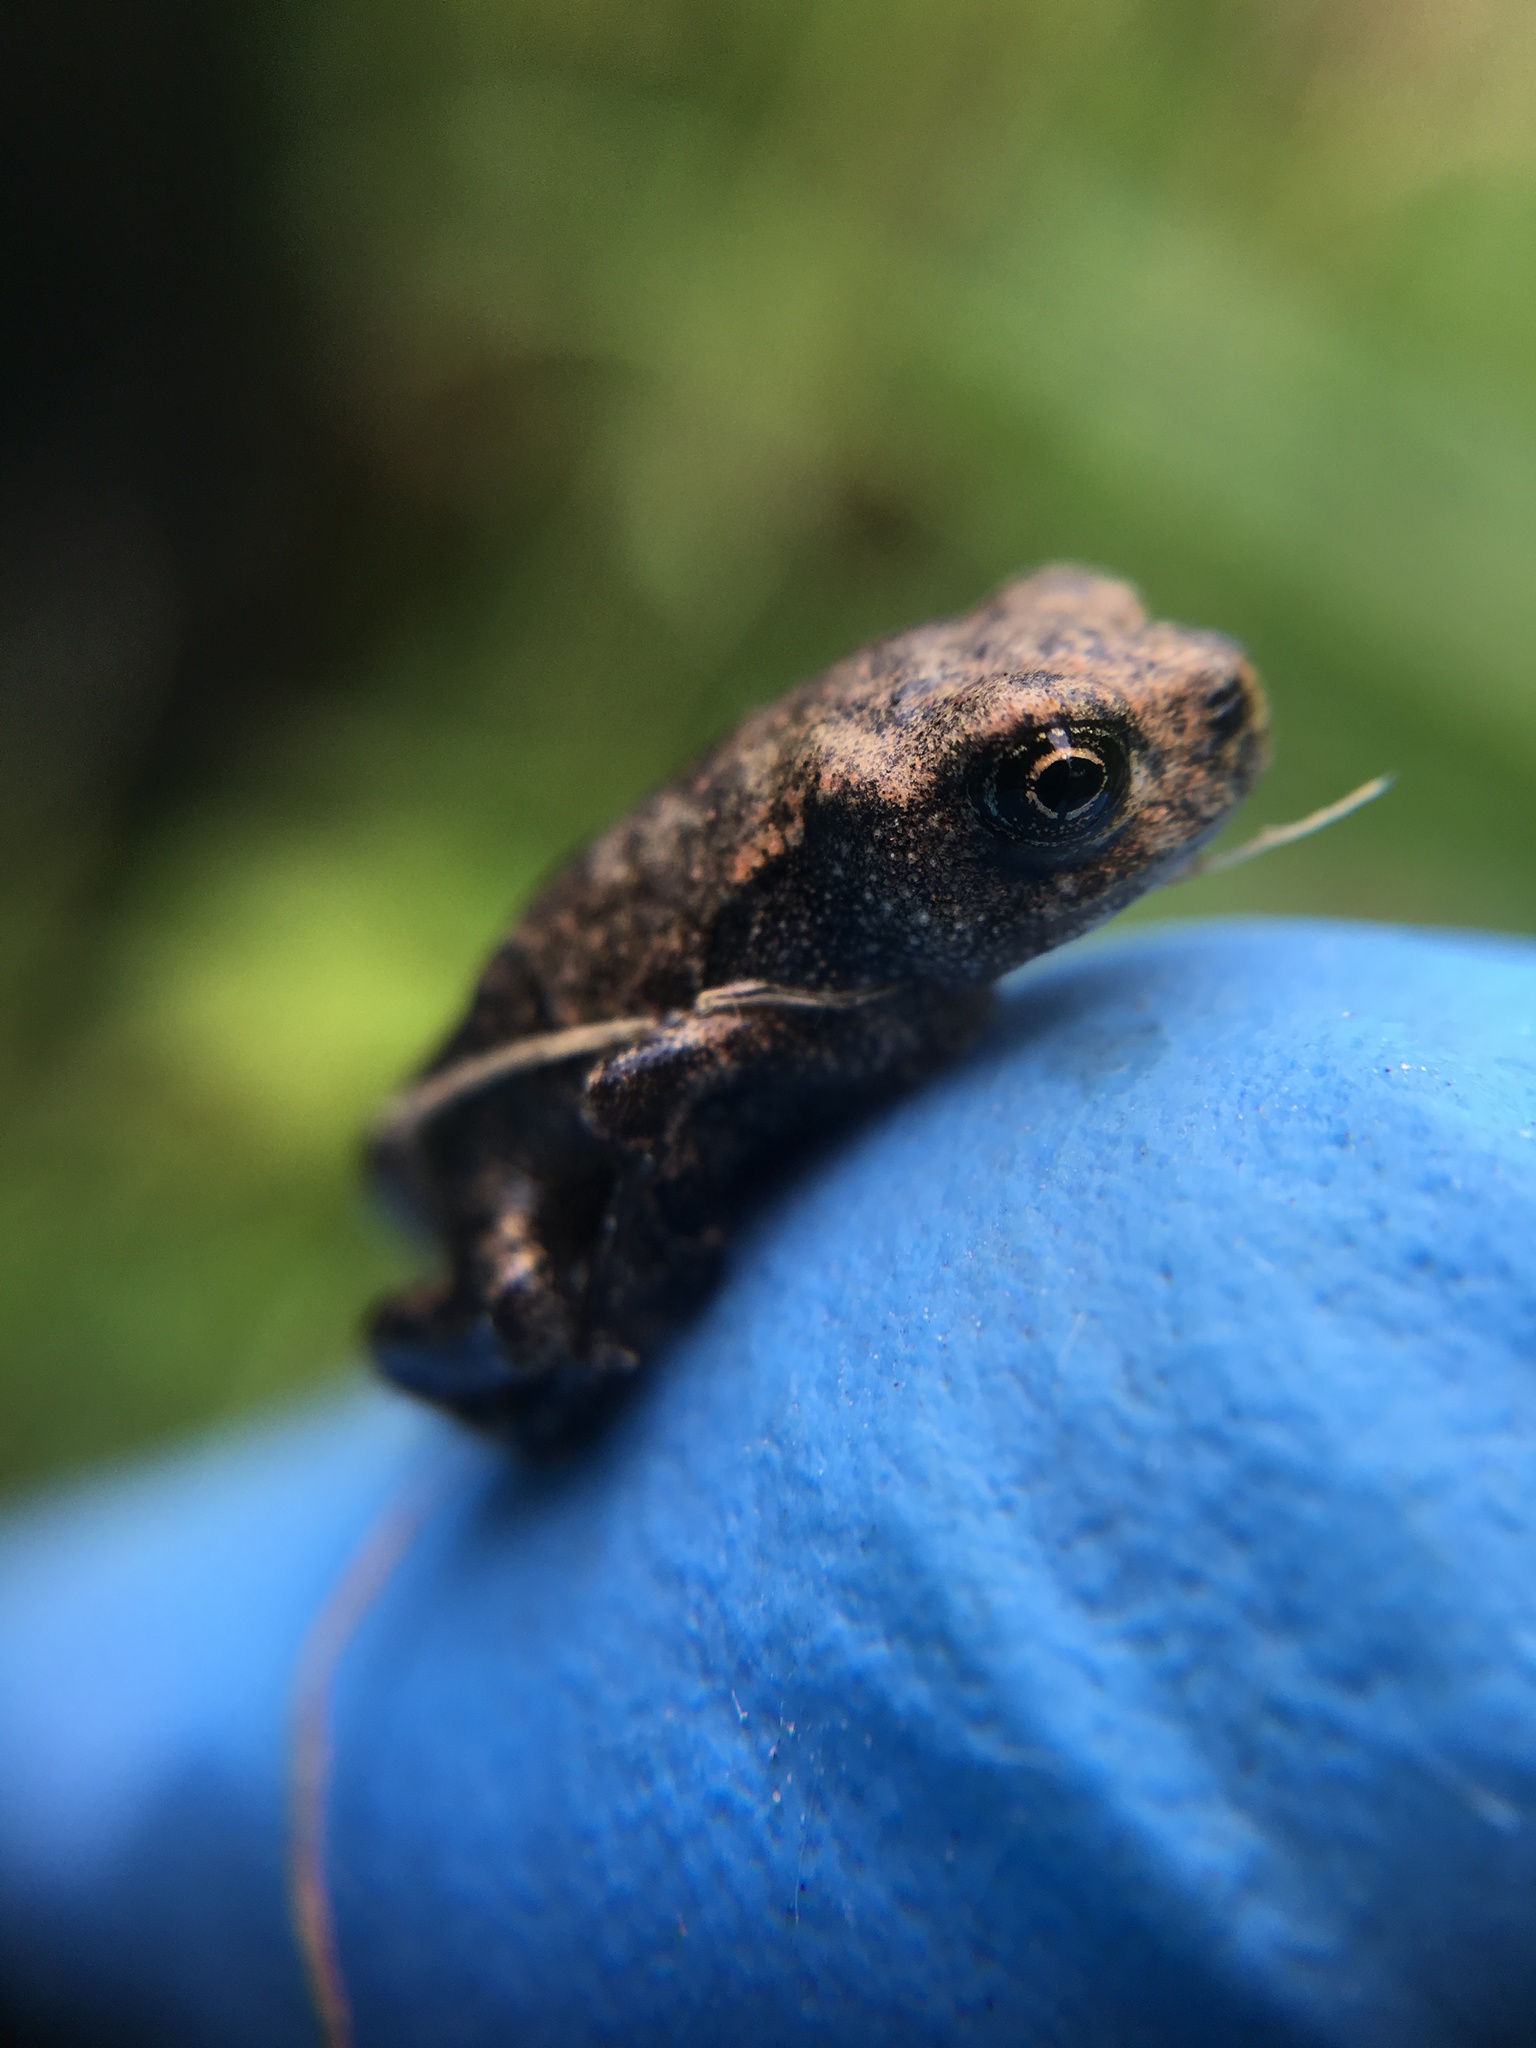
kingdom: Animalia
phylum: Chordata
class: Amphibia
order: Anura
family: Bufonidae
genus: Bufo
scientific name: Bufo spinosus
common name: Western common toad
